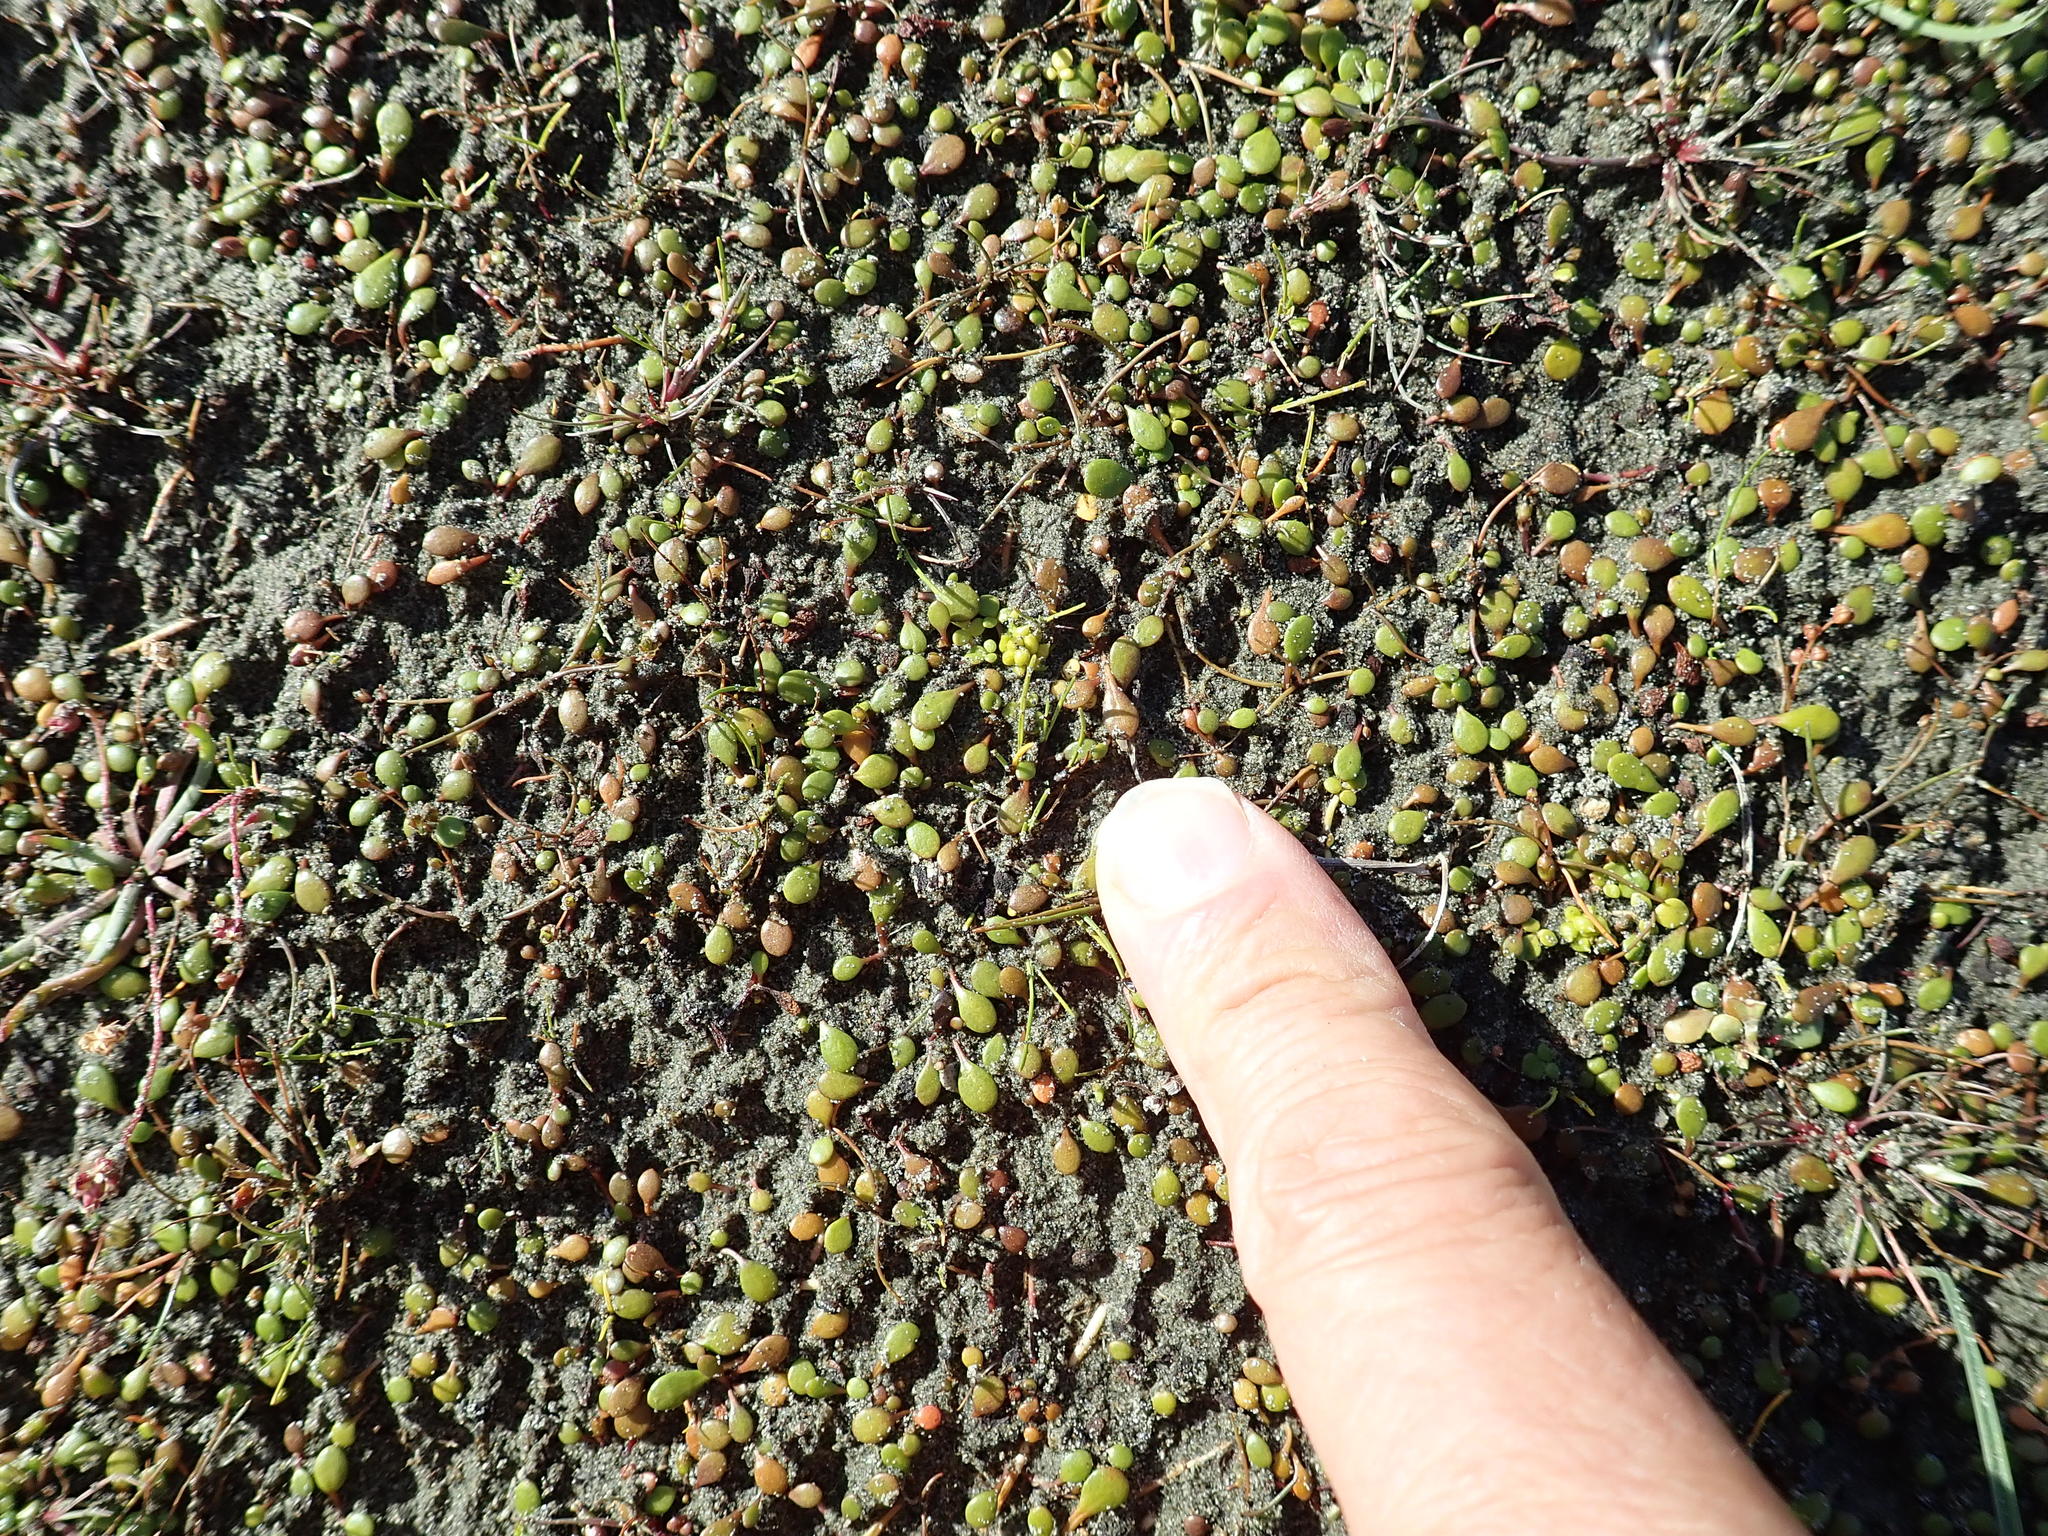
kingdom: Plantae
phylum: Tracheophyta
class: Magnoliopsida
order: Ranunculales
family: Ranunculaceae
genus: Ranunculus
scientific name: Ranunculus acaulis
